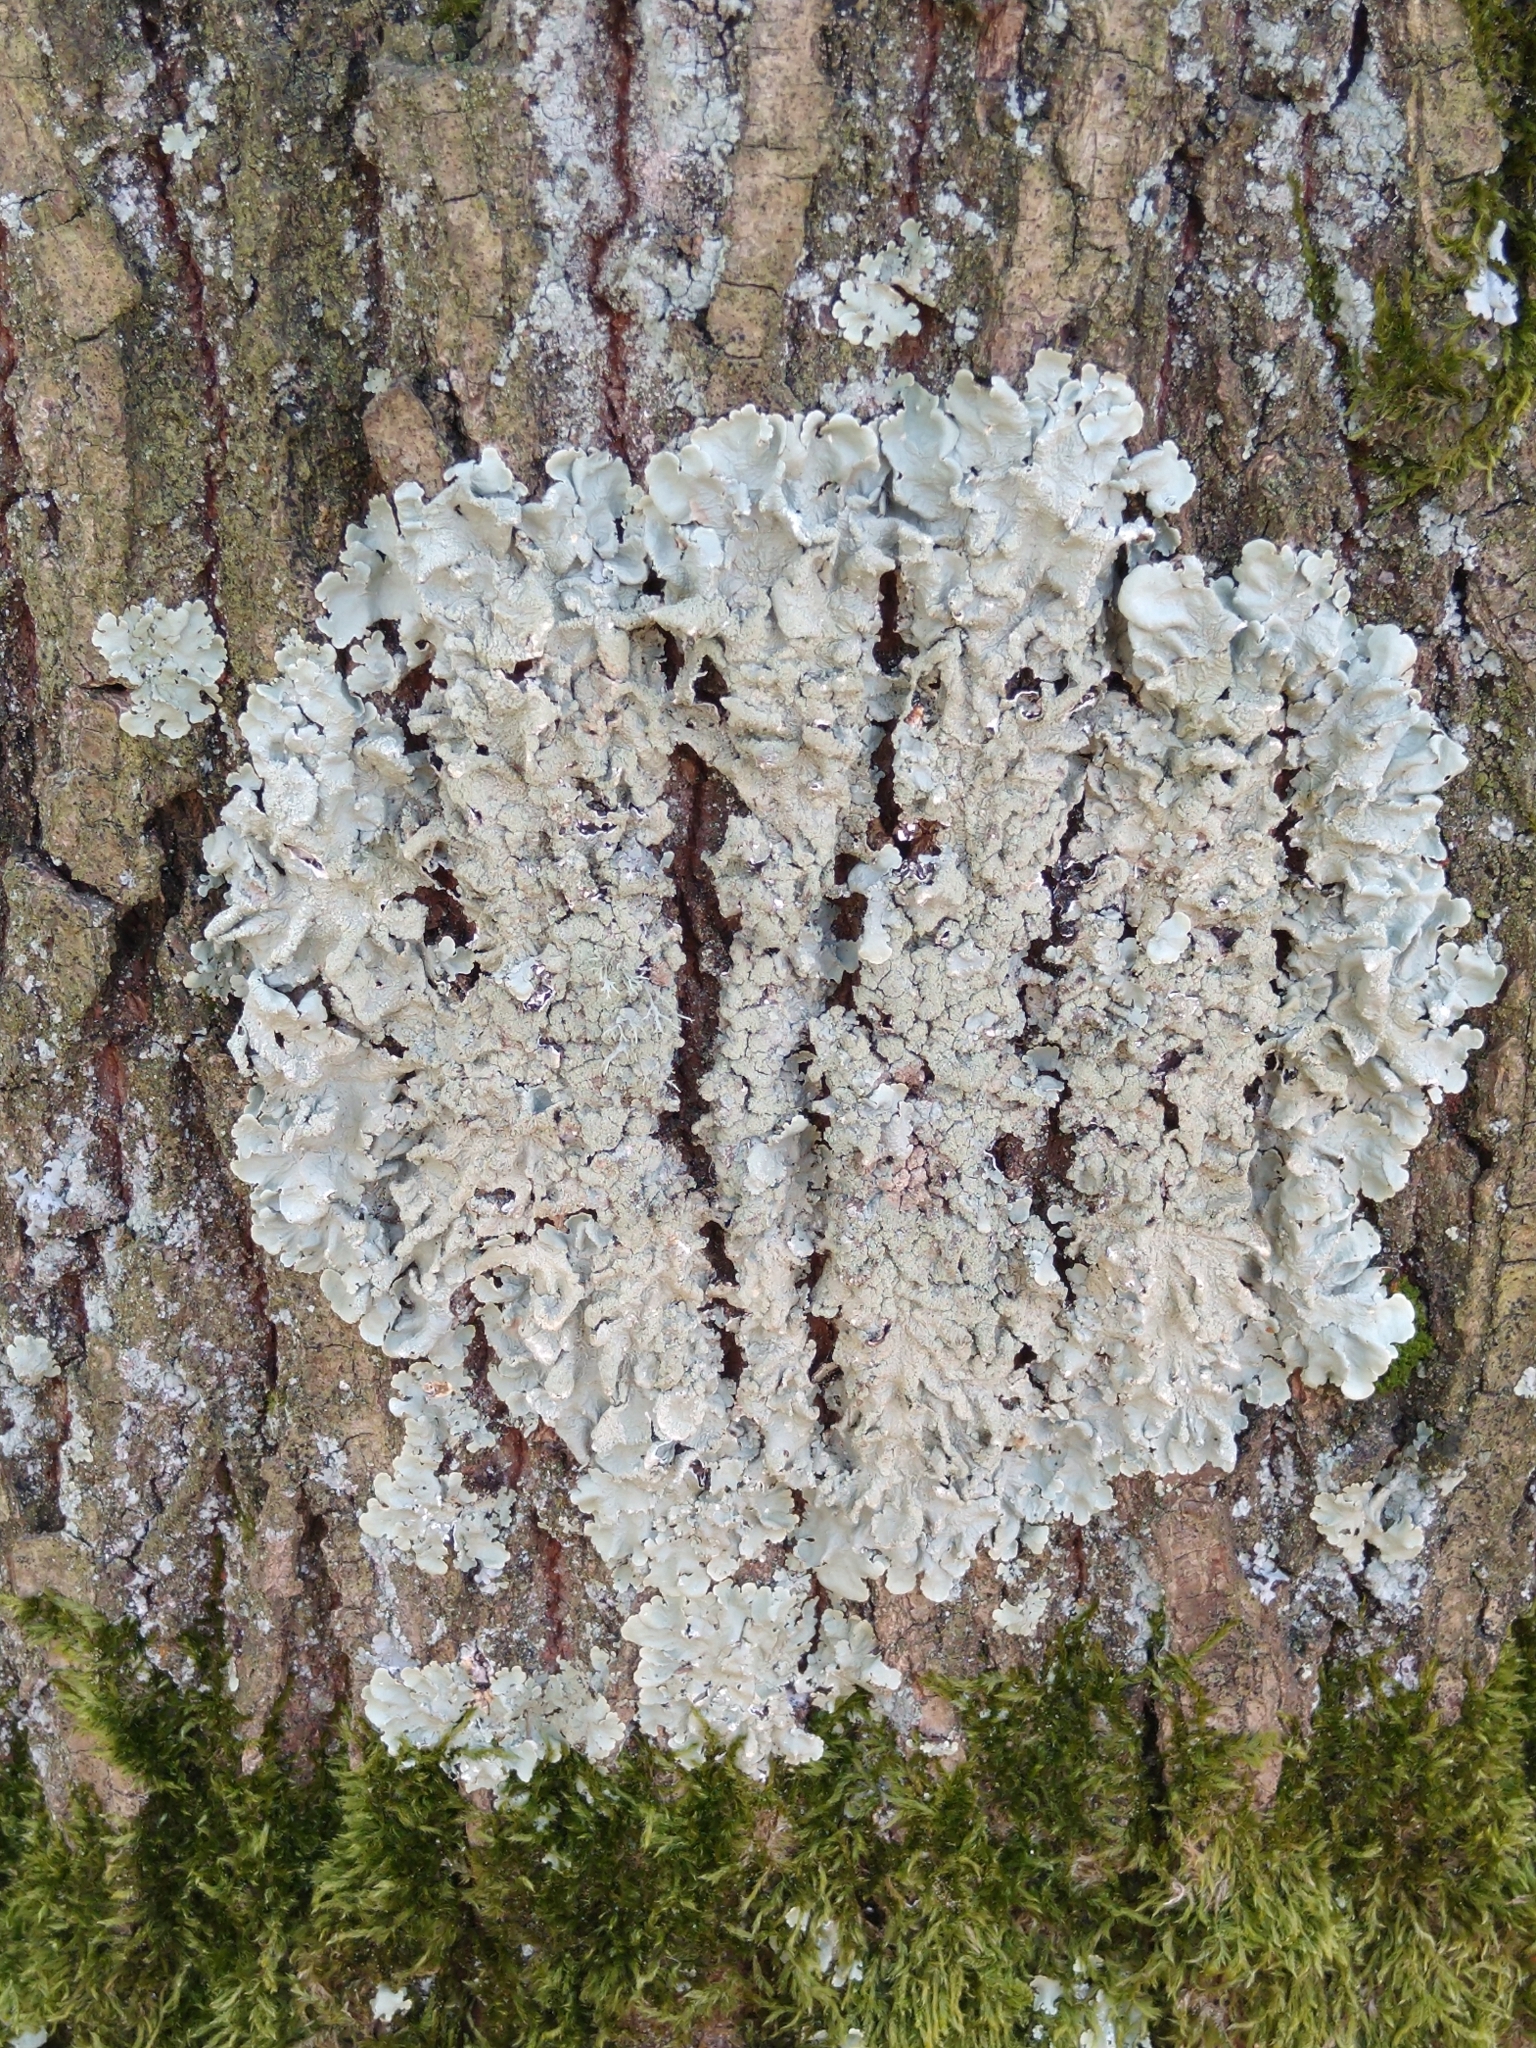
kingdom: Fungi
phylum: Ascomycota
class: Lecanoromycetes
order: Lecanorales
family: Parmeliaceae
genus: Flavoparmelia
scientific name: Flavoparmelia caperata
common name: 40-mile per hour lichen
